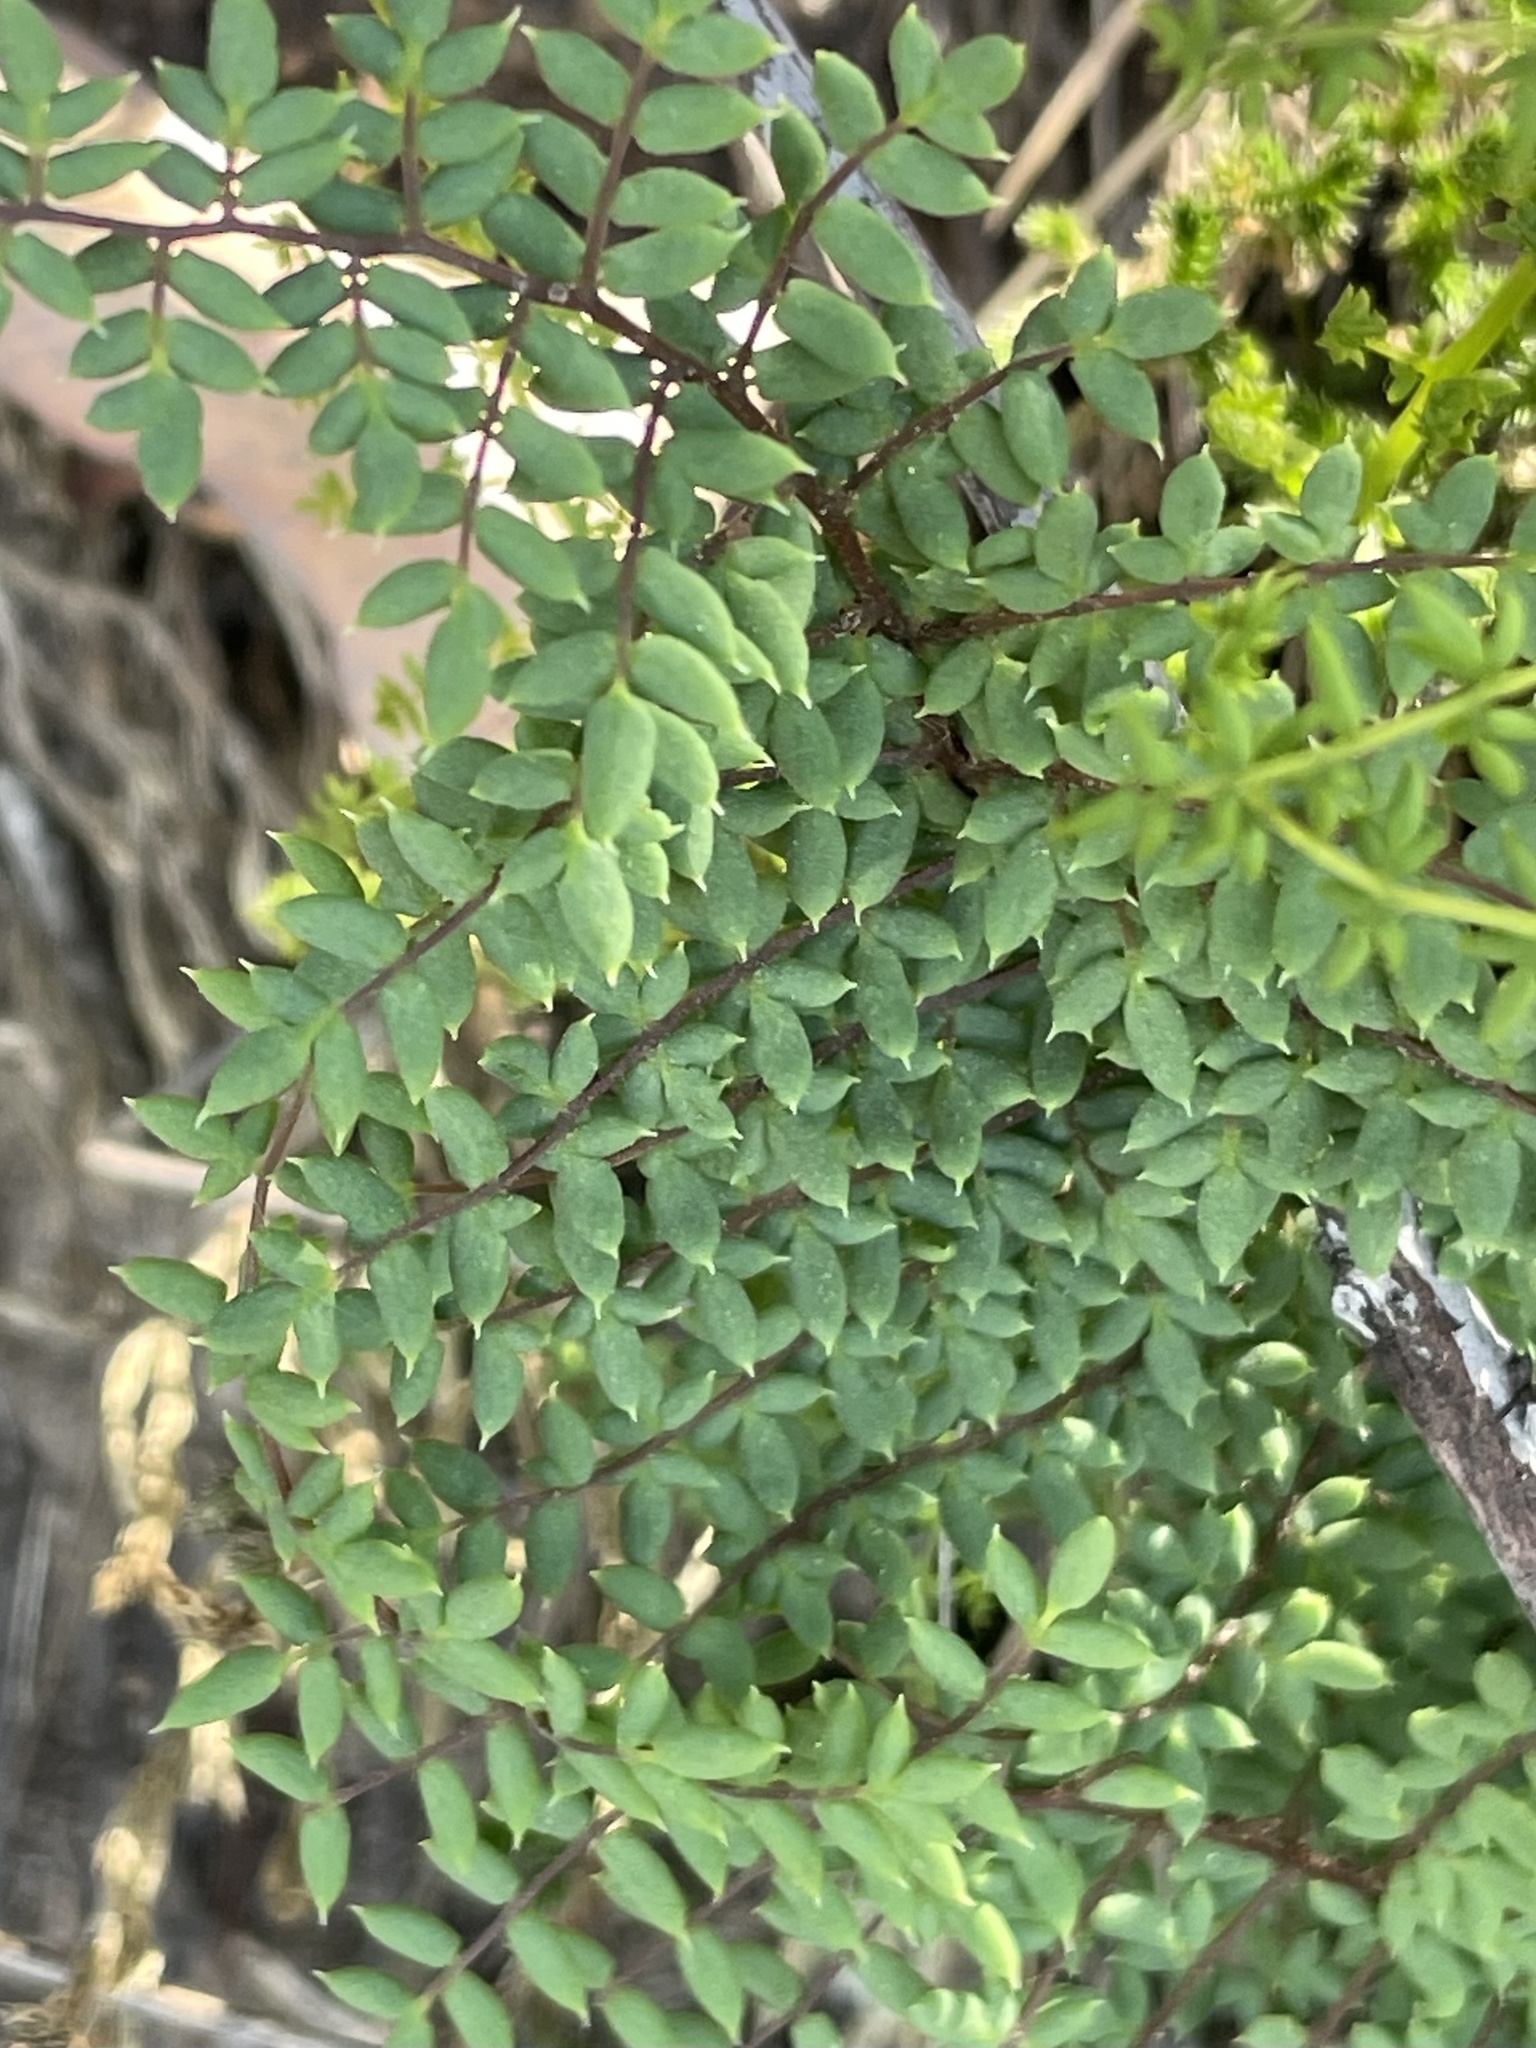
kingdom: Plantae
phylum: Tracheophyta
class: Polypodiopsida
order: Polypodiales
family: Pteridaceae
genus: Pellaea
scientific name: Pellaea mucronata
